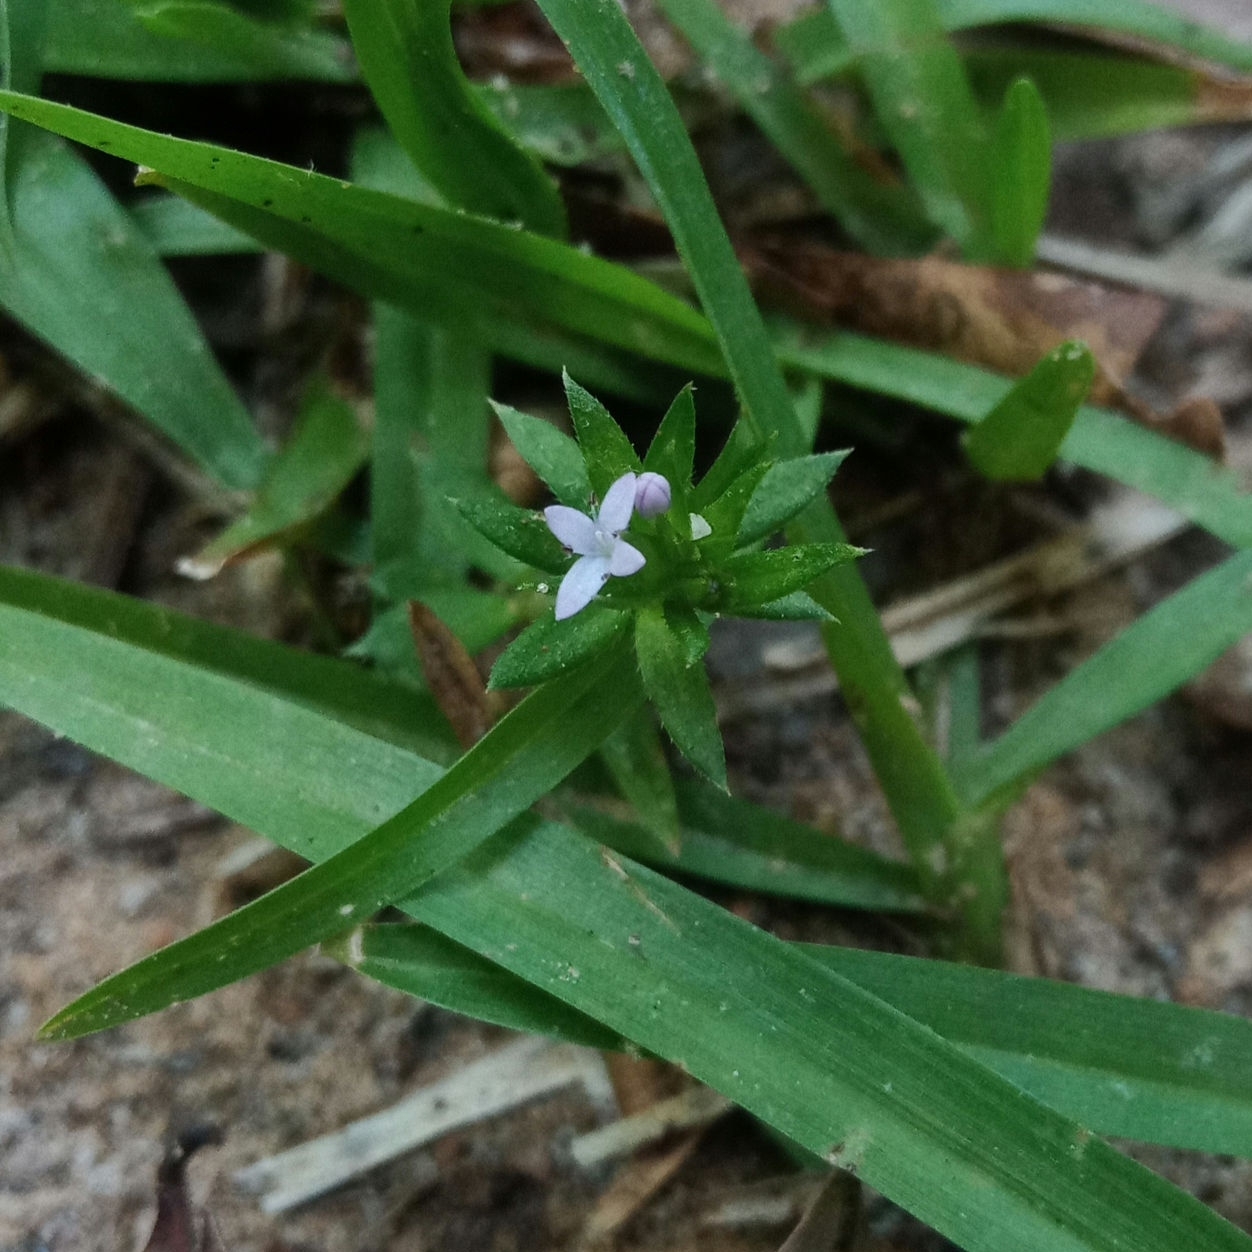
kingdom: Plantae
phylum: Tracheophyta
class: Magnoliopsida
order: Gentianales
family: Rubiaceae
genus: Sherardia
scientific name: Sherardia arvensis
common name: Field madder
